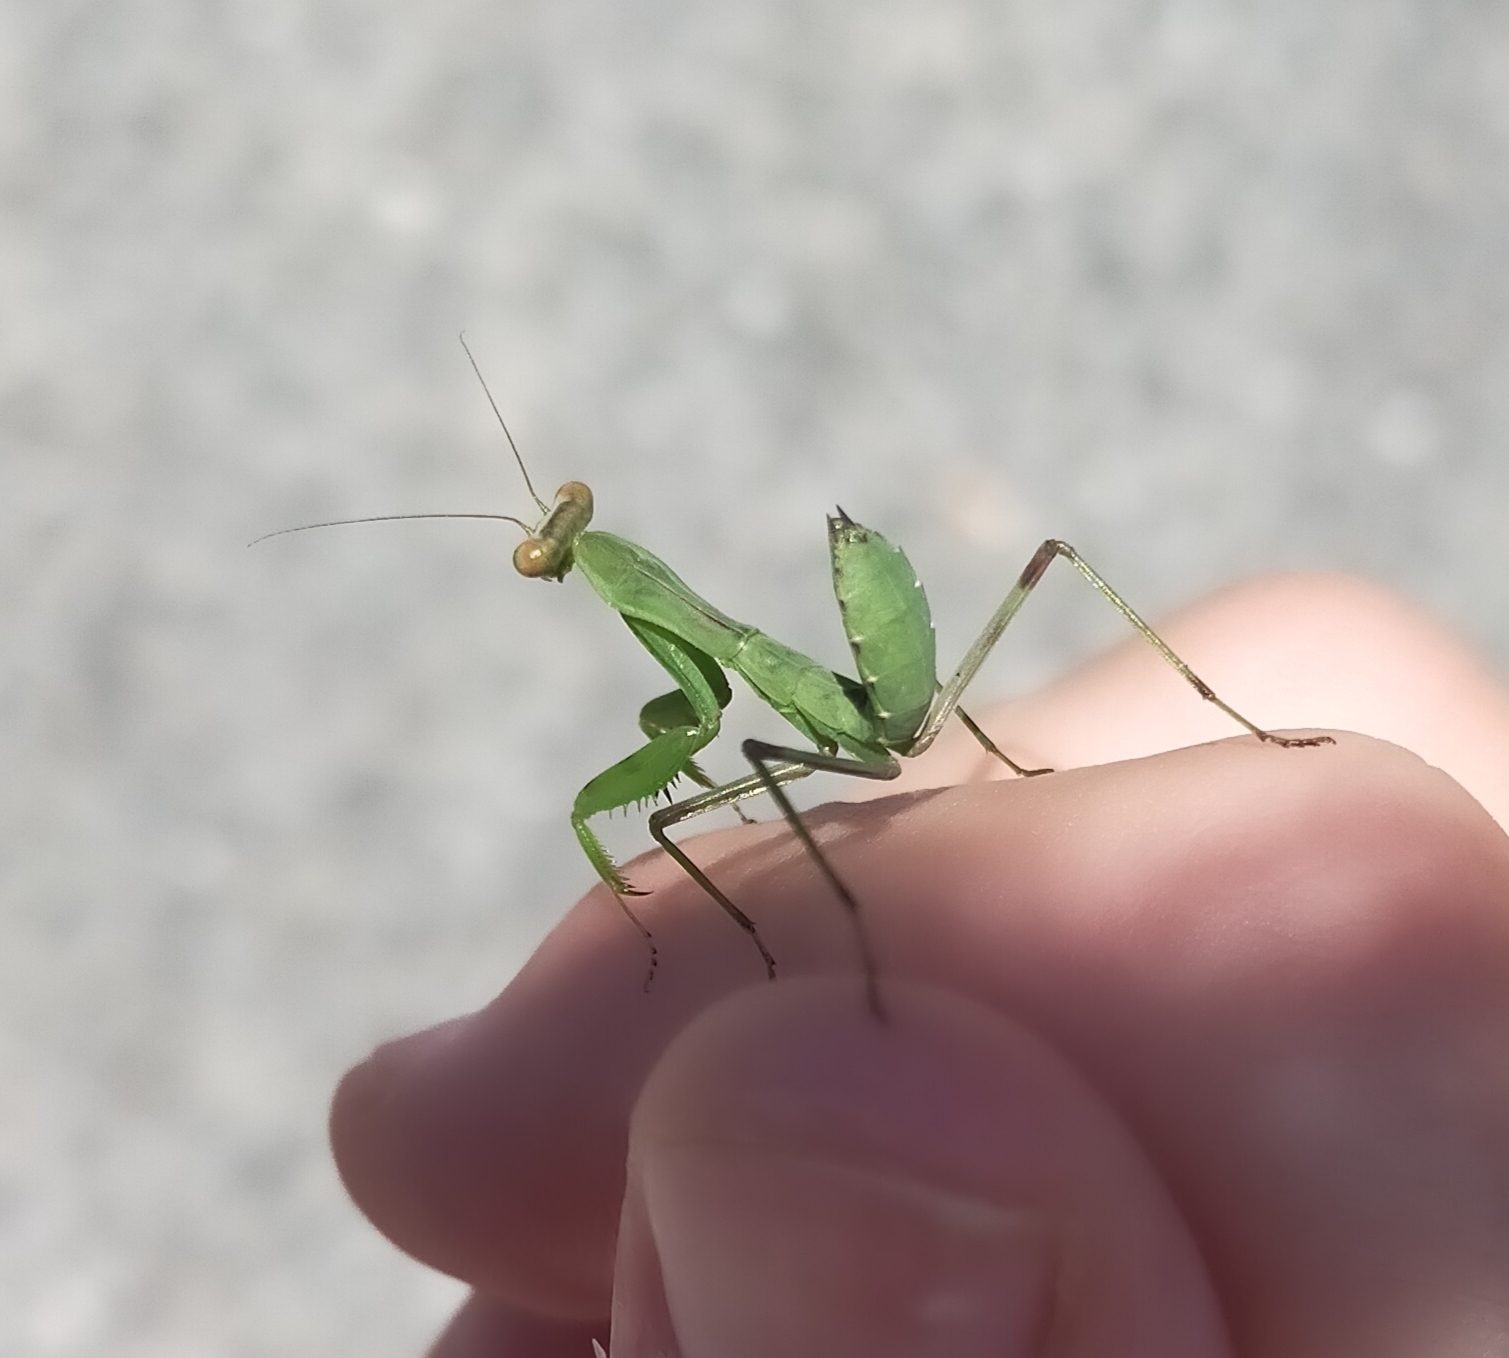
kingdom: Animalia
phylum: Arthropoda
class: Insecta
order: Mantodea
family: Mantidae
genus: Hierodula
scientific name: Hierodula transcaucasica
